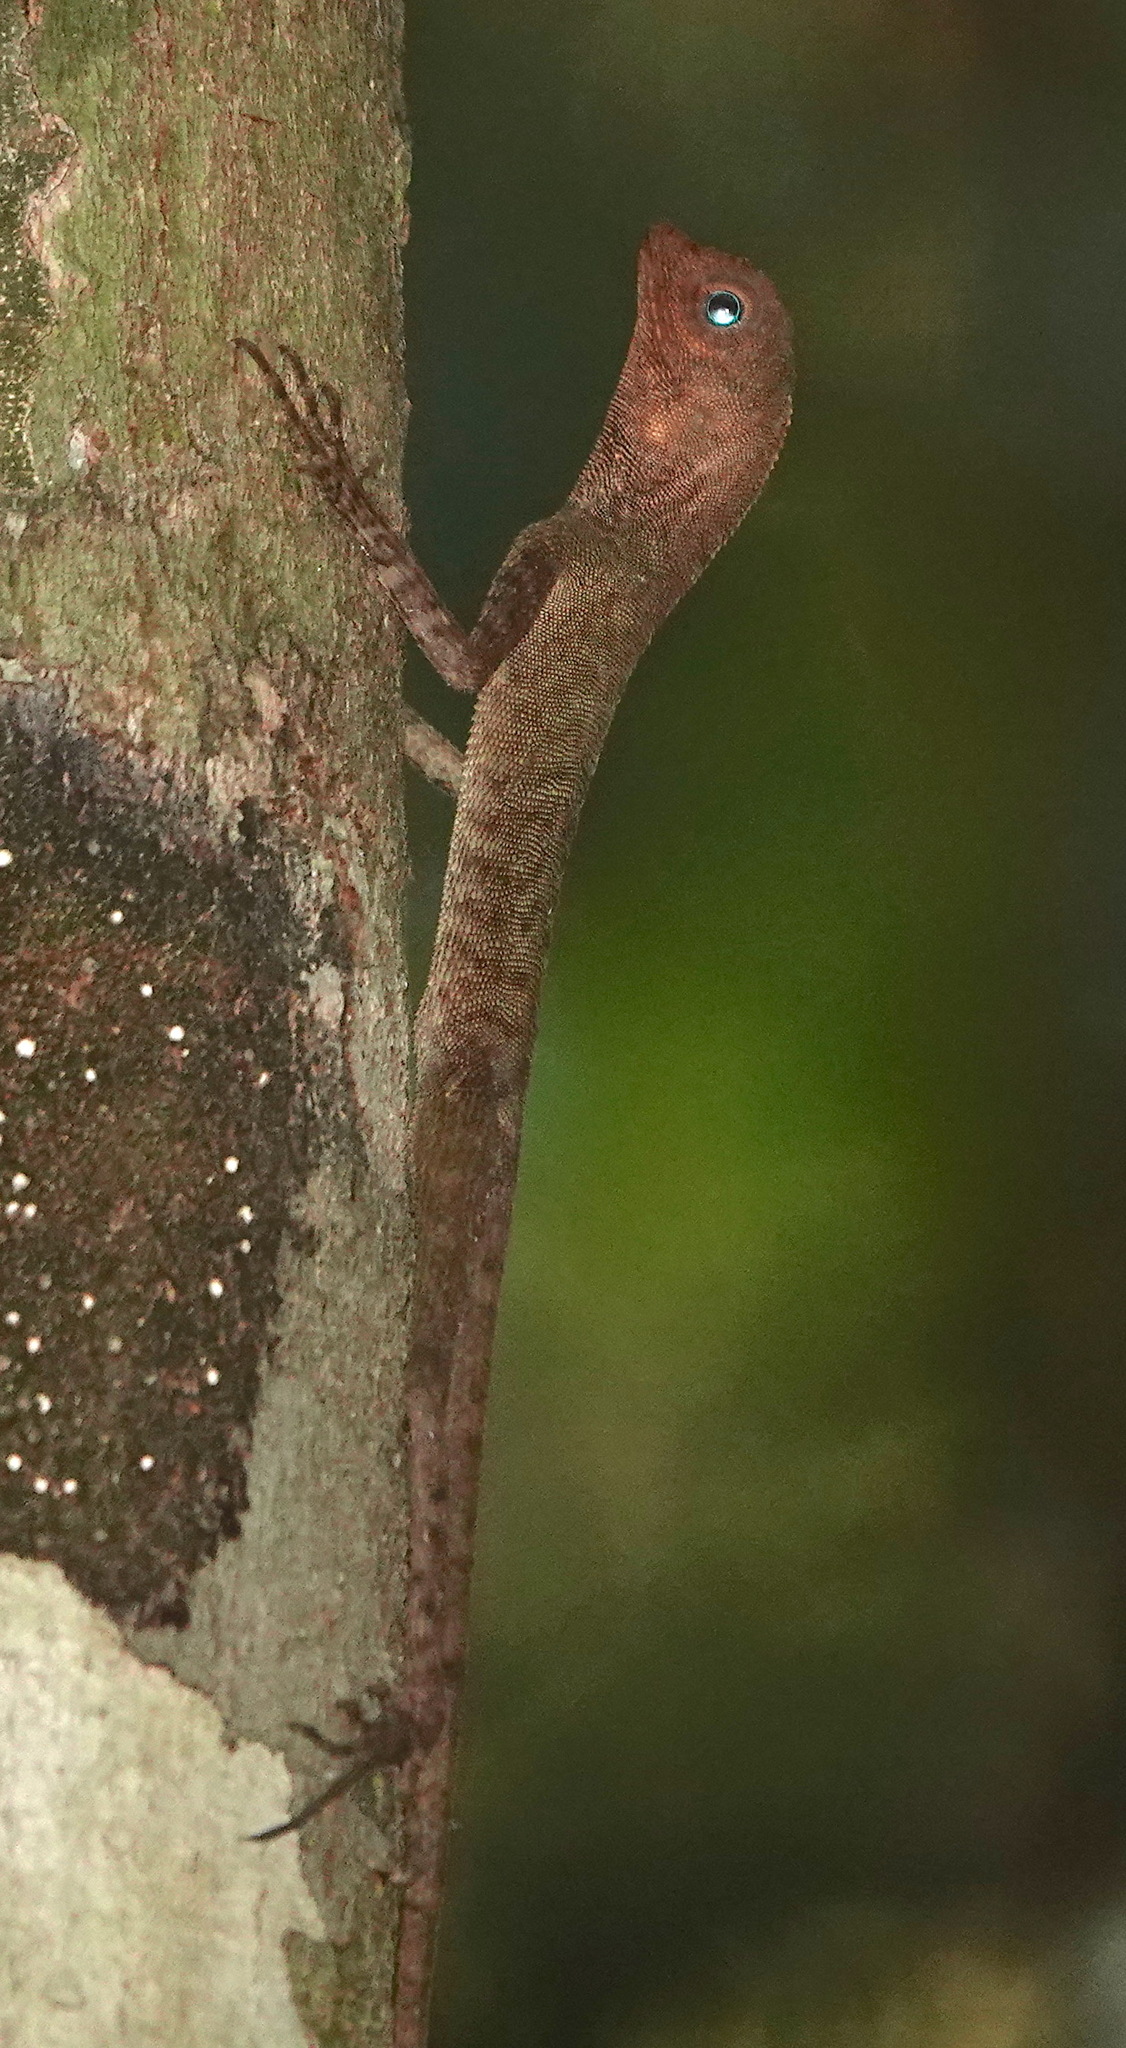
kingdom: Animalia
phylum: Chordata
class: Squamata
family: Agamidae
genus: Aphaniotis
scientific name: Aphaniotis fusca
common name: Dusky earless agama
